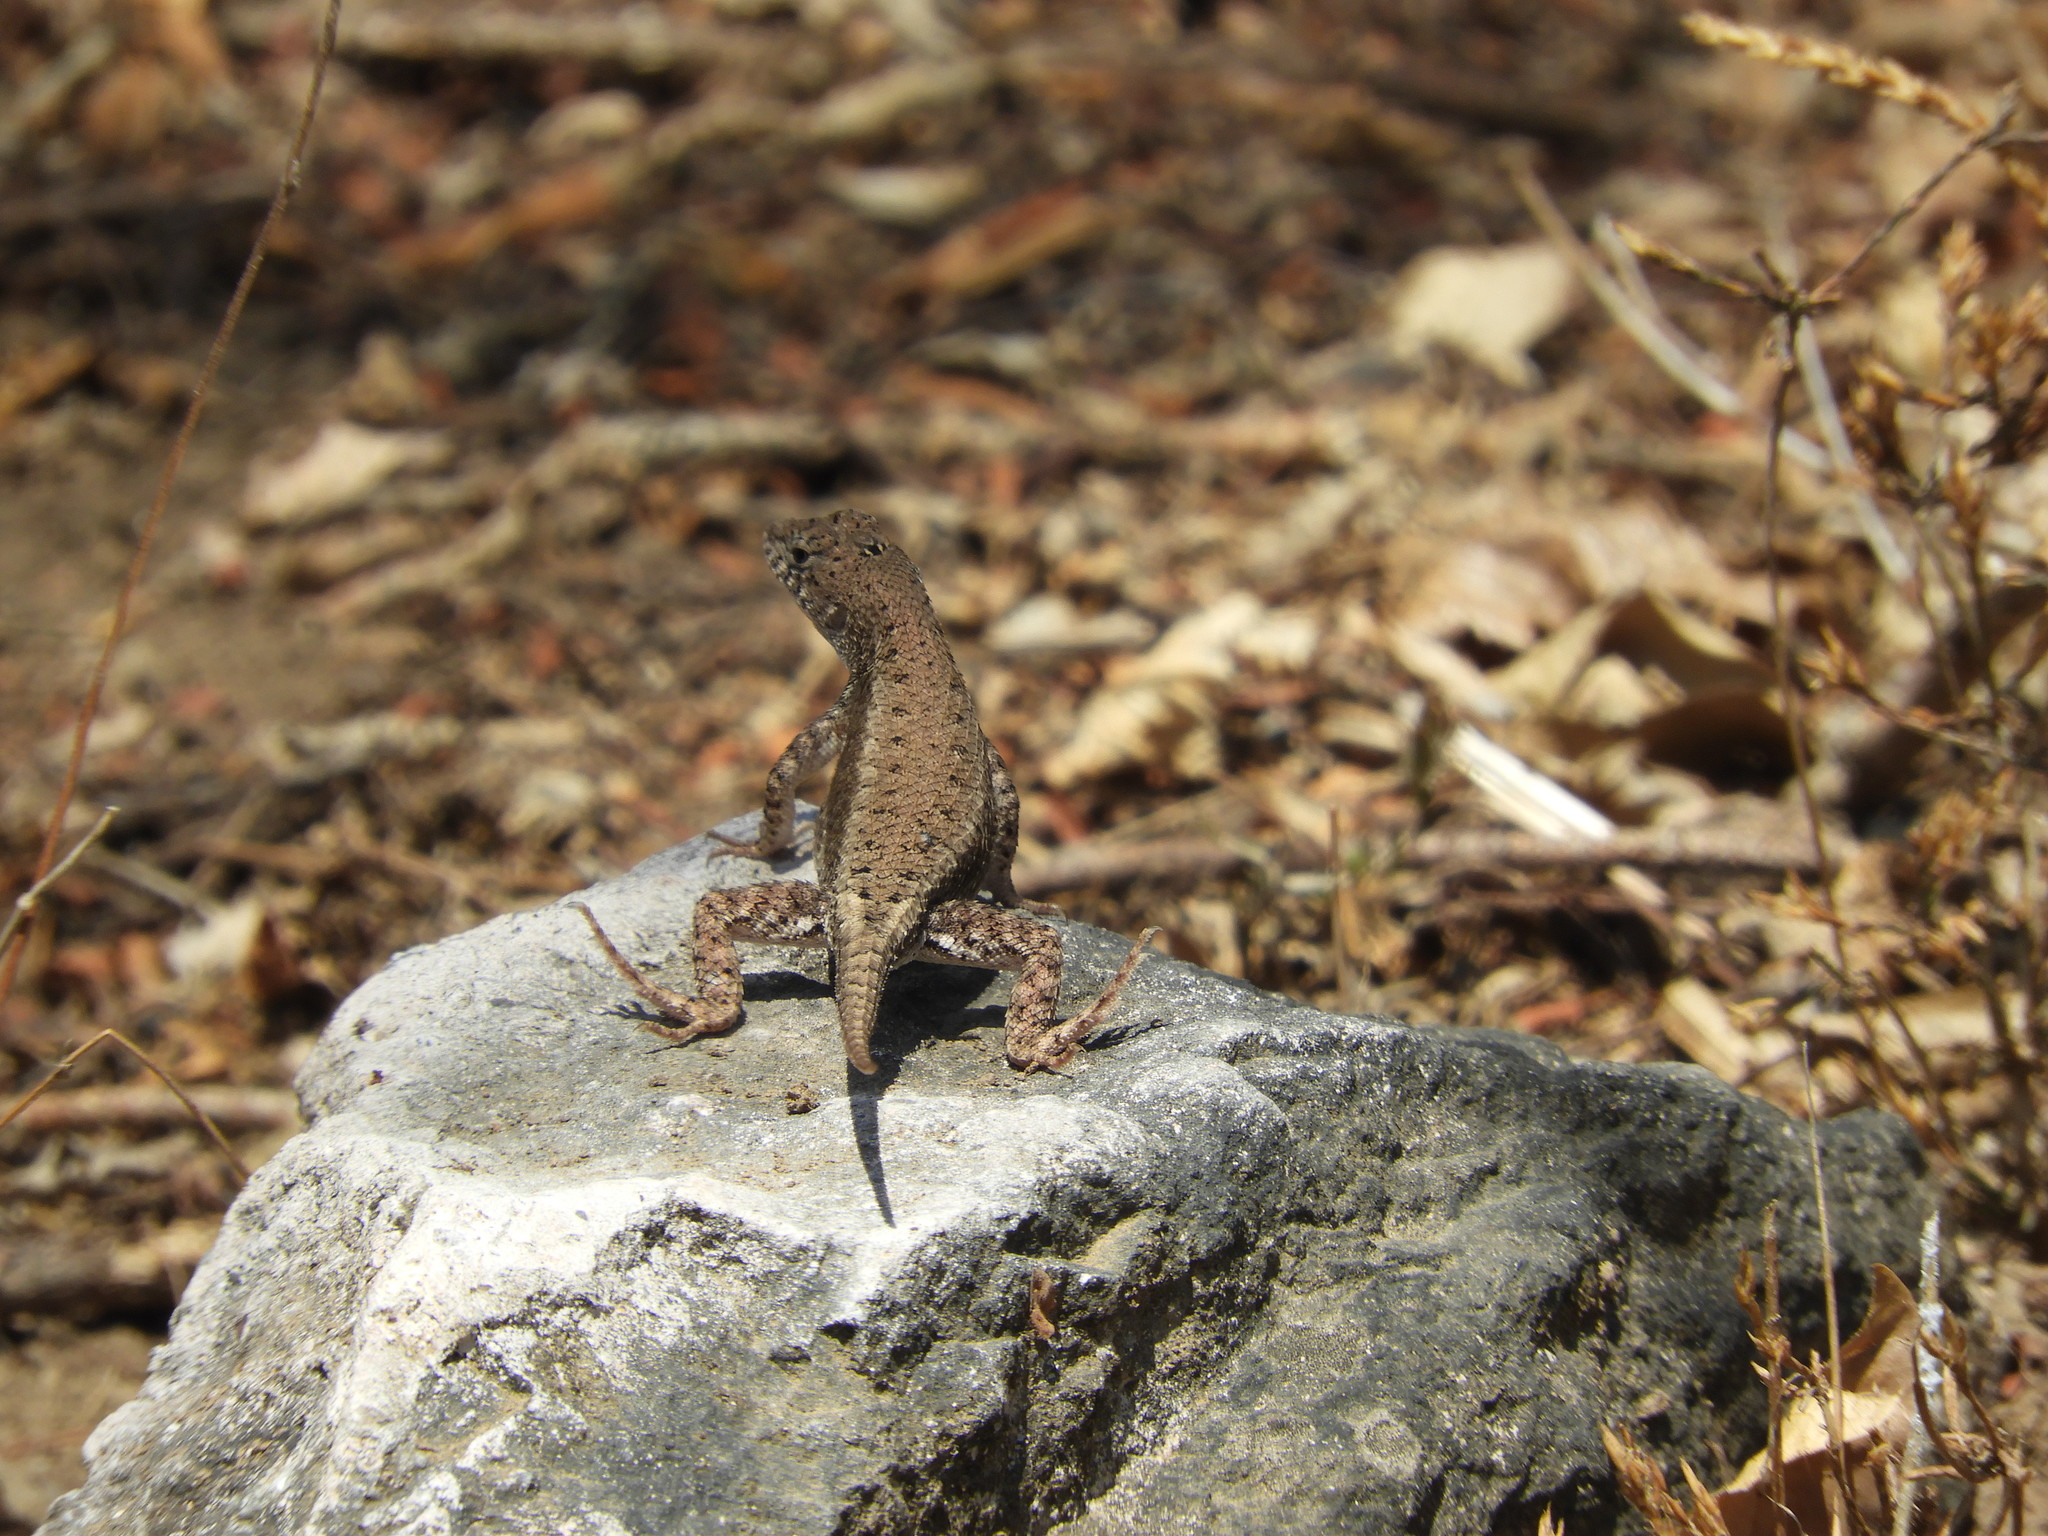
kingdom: Animalia
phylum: Chordata
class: Squamata
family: Phrynosomatidae
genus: Sceloporus
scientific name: Sceloporus nelsoni
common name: Nelson's spiny lizard
